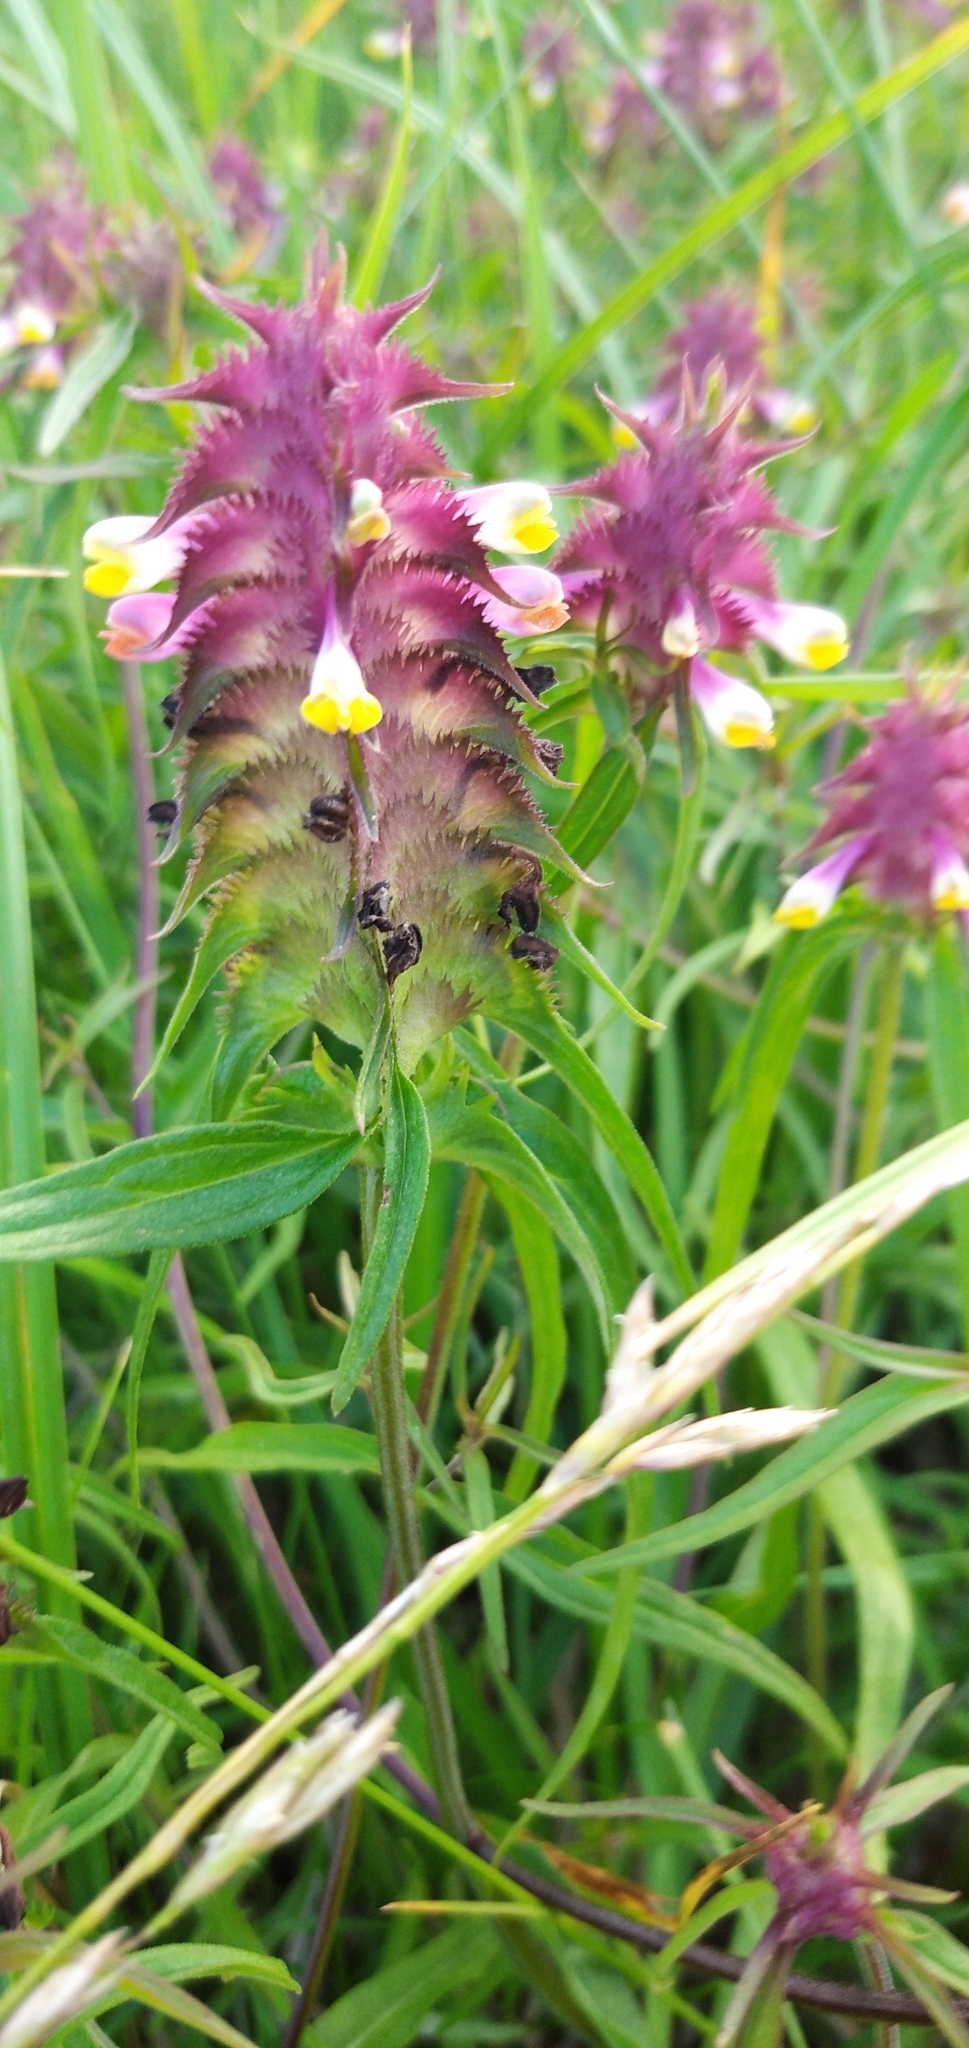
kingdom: Plantae
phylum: Tracheophyta
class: Magnoliopsida
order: Lamiales
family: Orobanchaceae
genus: Melampyrum
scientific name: Melampyrum cristatum
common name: Crested cow-wheat
